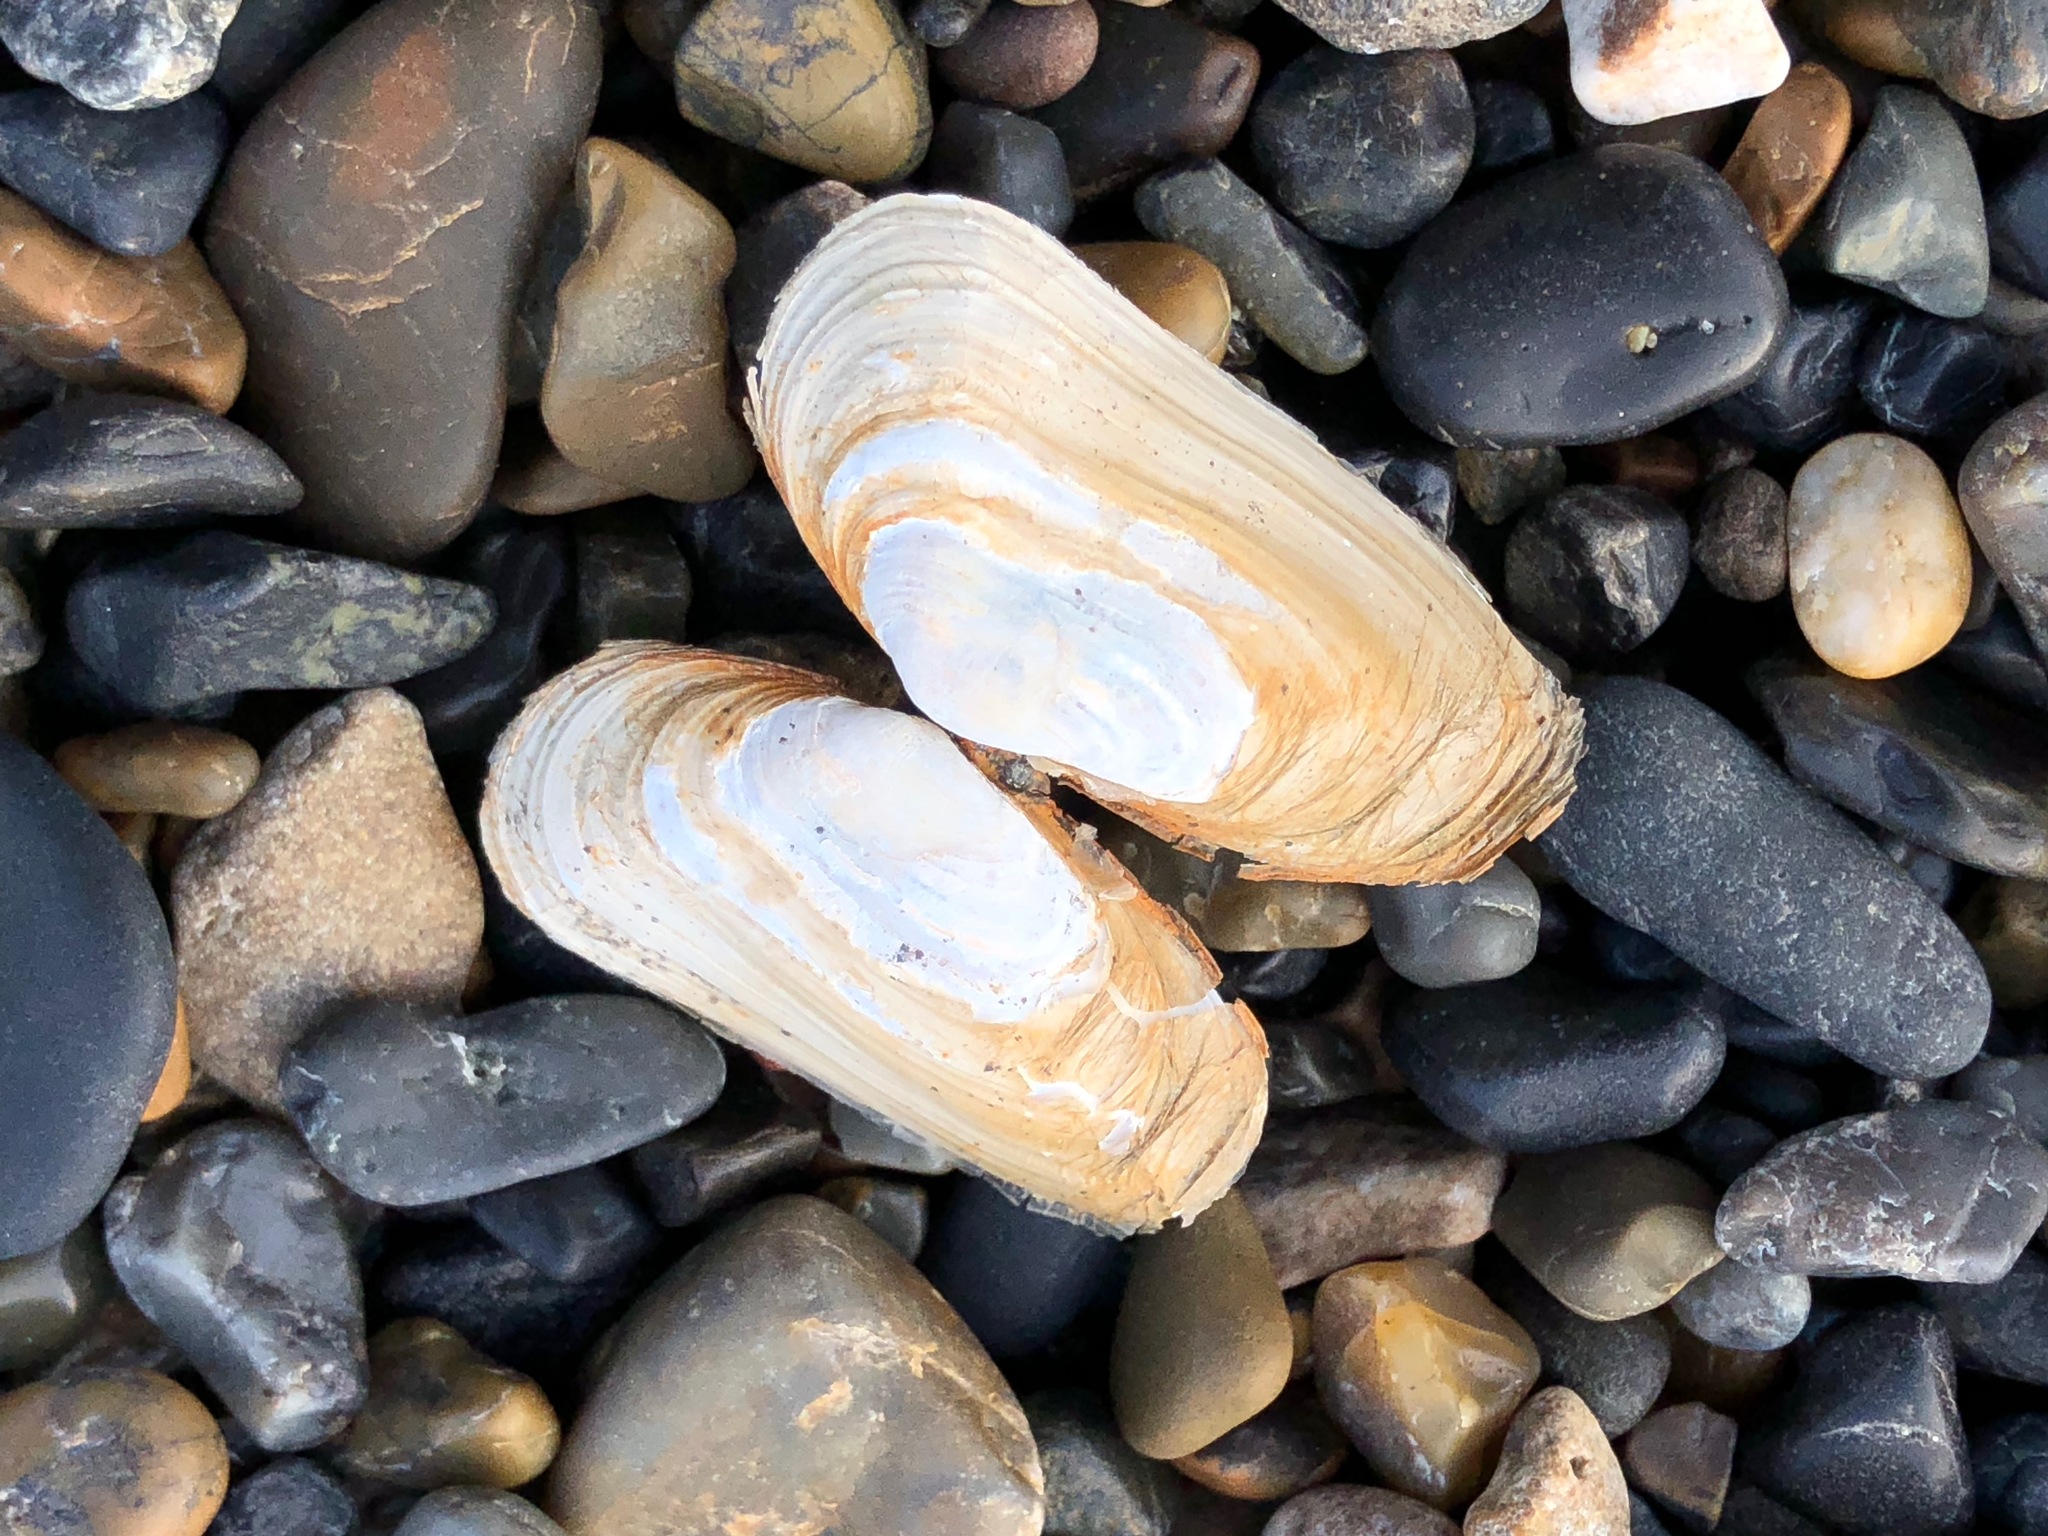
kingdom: Animalia
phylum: Mollusca
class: Bivalvia
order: Adapedonta
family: Hiatellidae
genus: Hiatella
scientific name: Hiatella arctica
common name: Arctic hiatella
